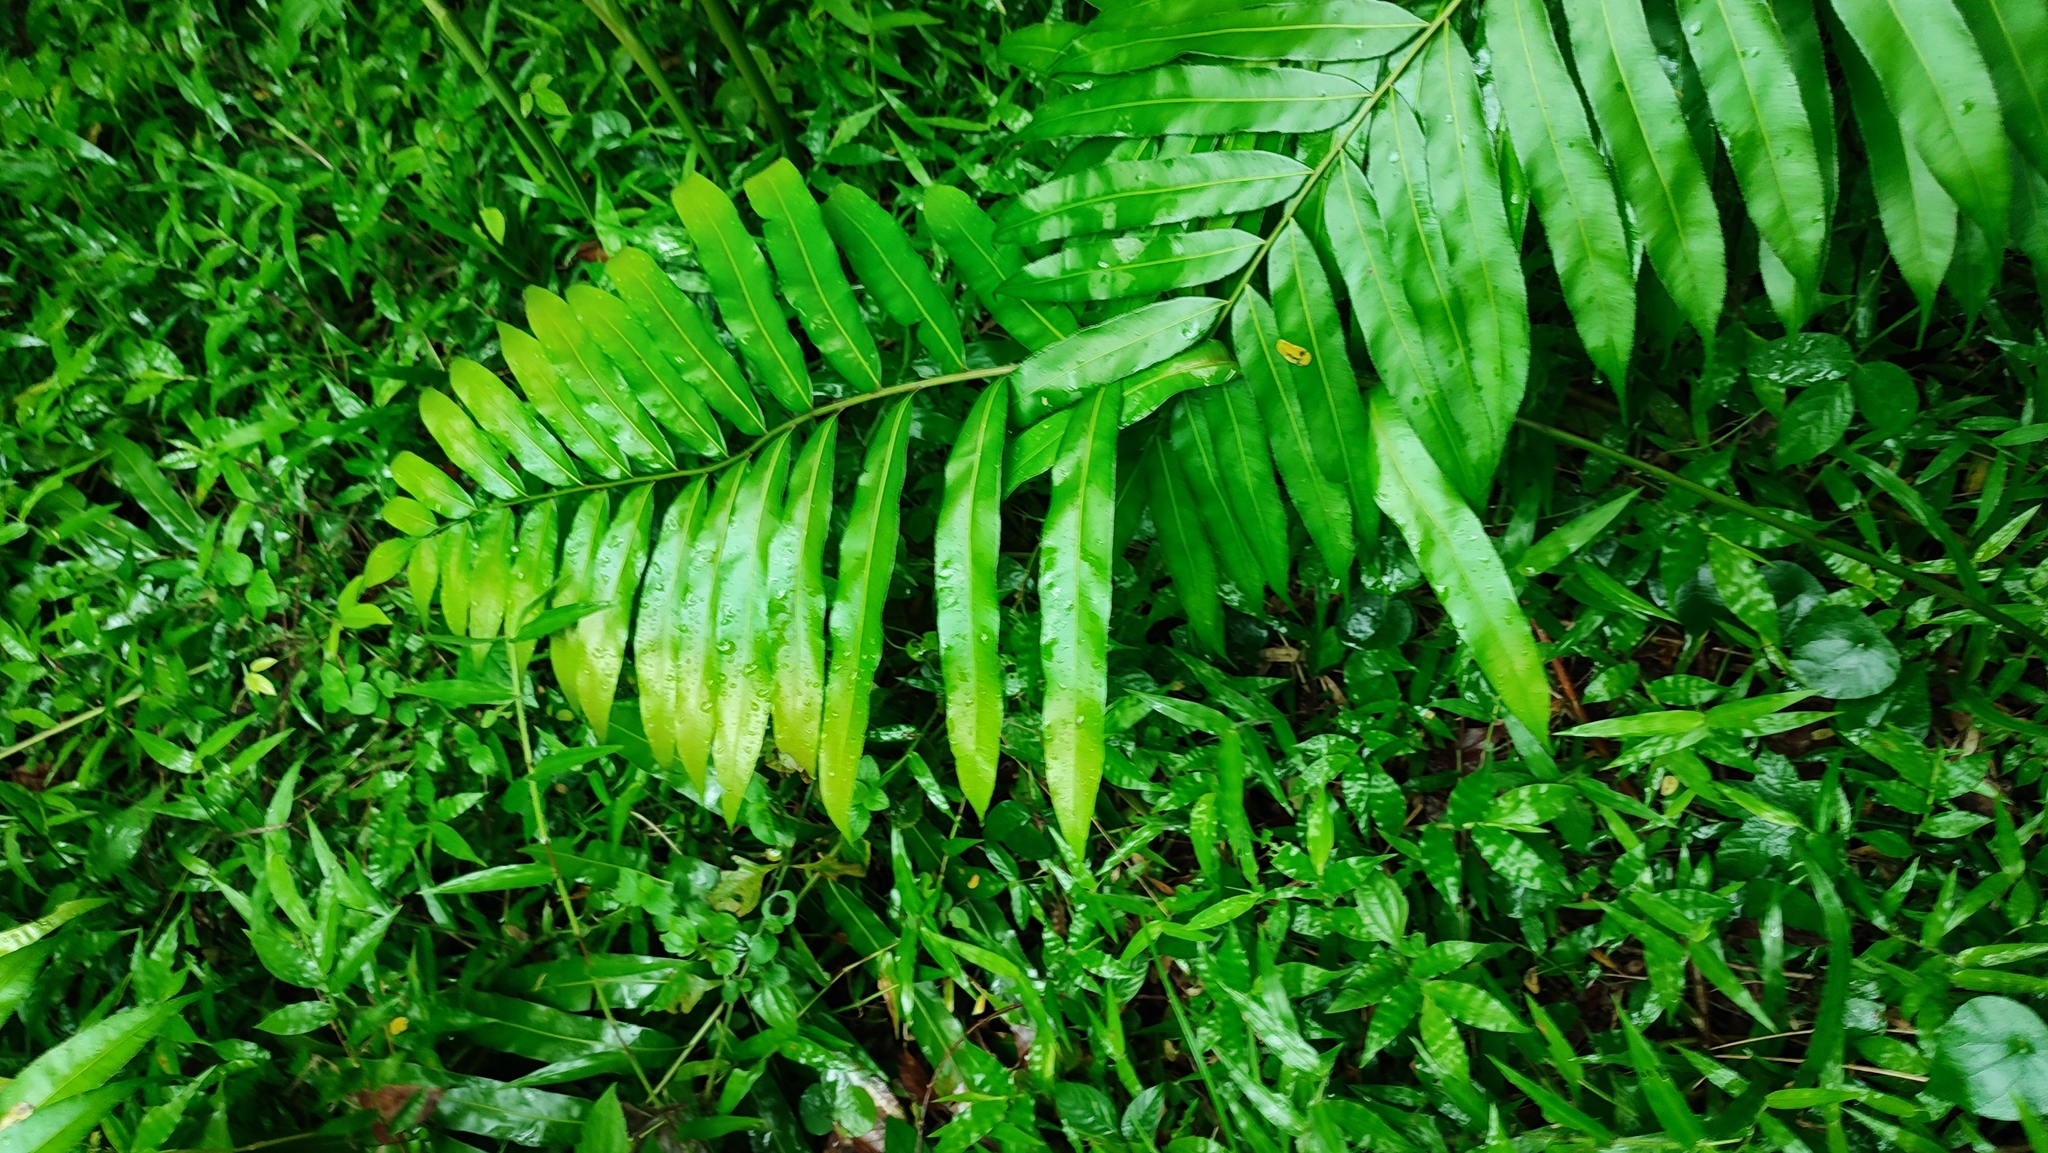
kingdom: Plantae
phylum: Tracheophyta
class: Polypodiopsida
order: Polypodiales
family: Blechnaceae
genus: Stenochlaena
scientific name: Stenochlaena palustris
